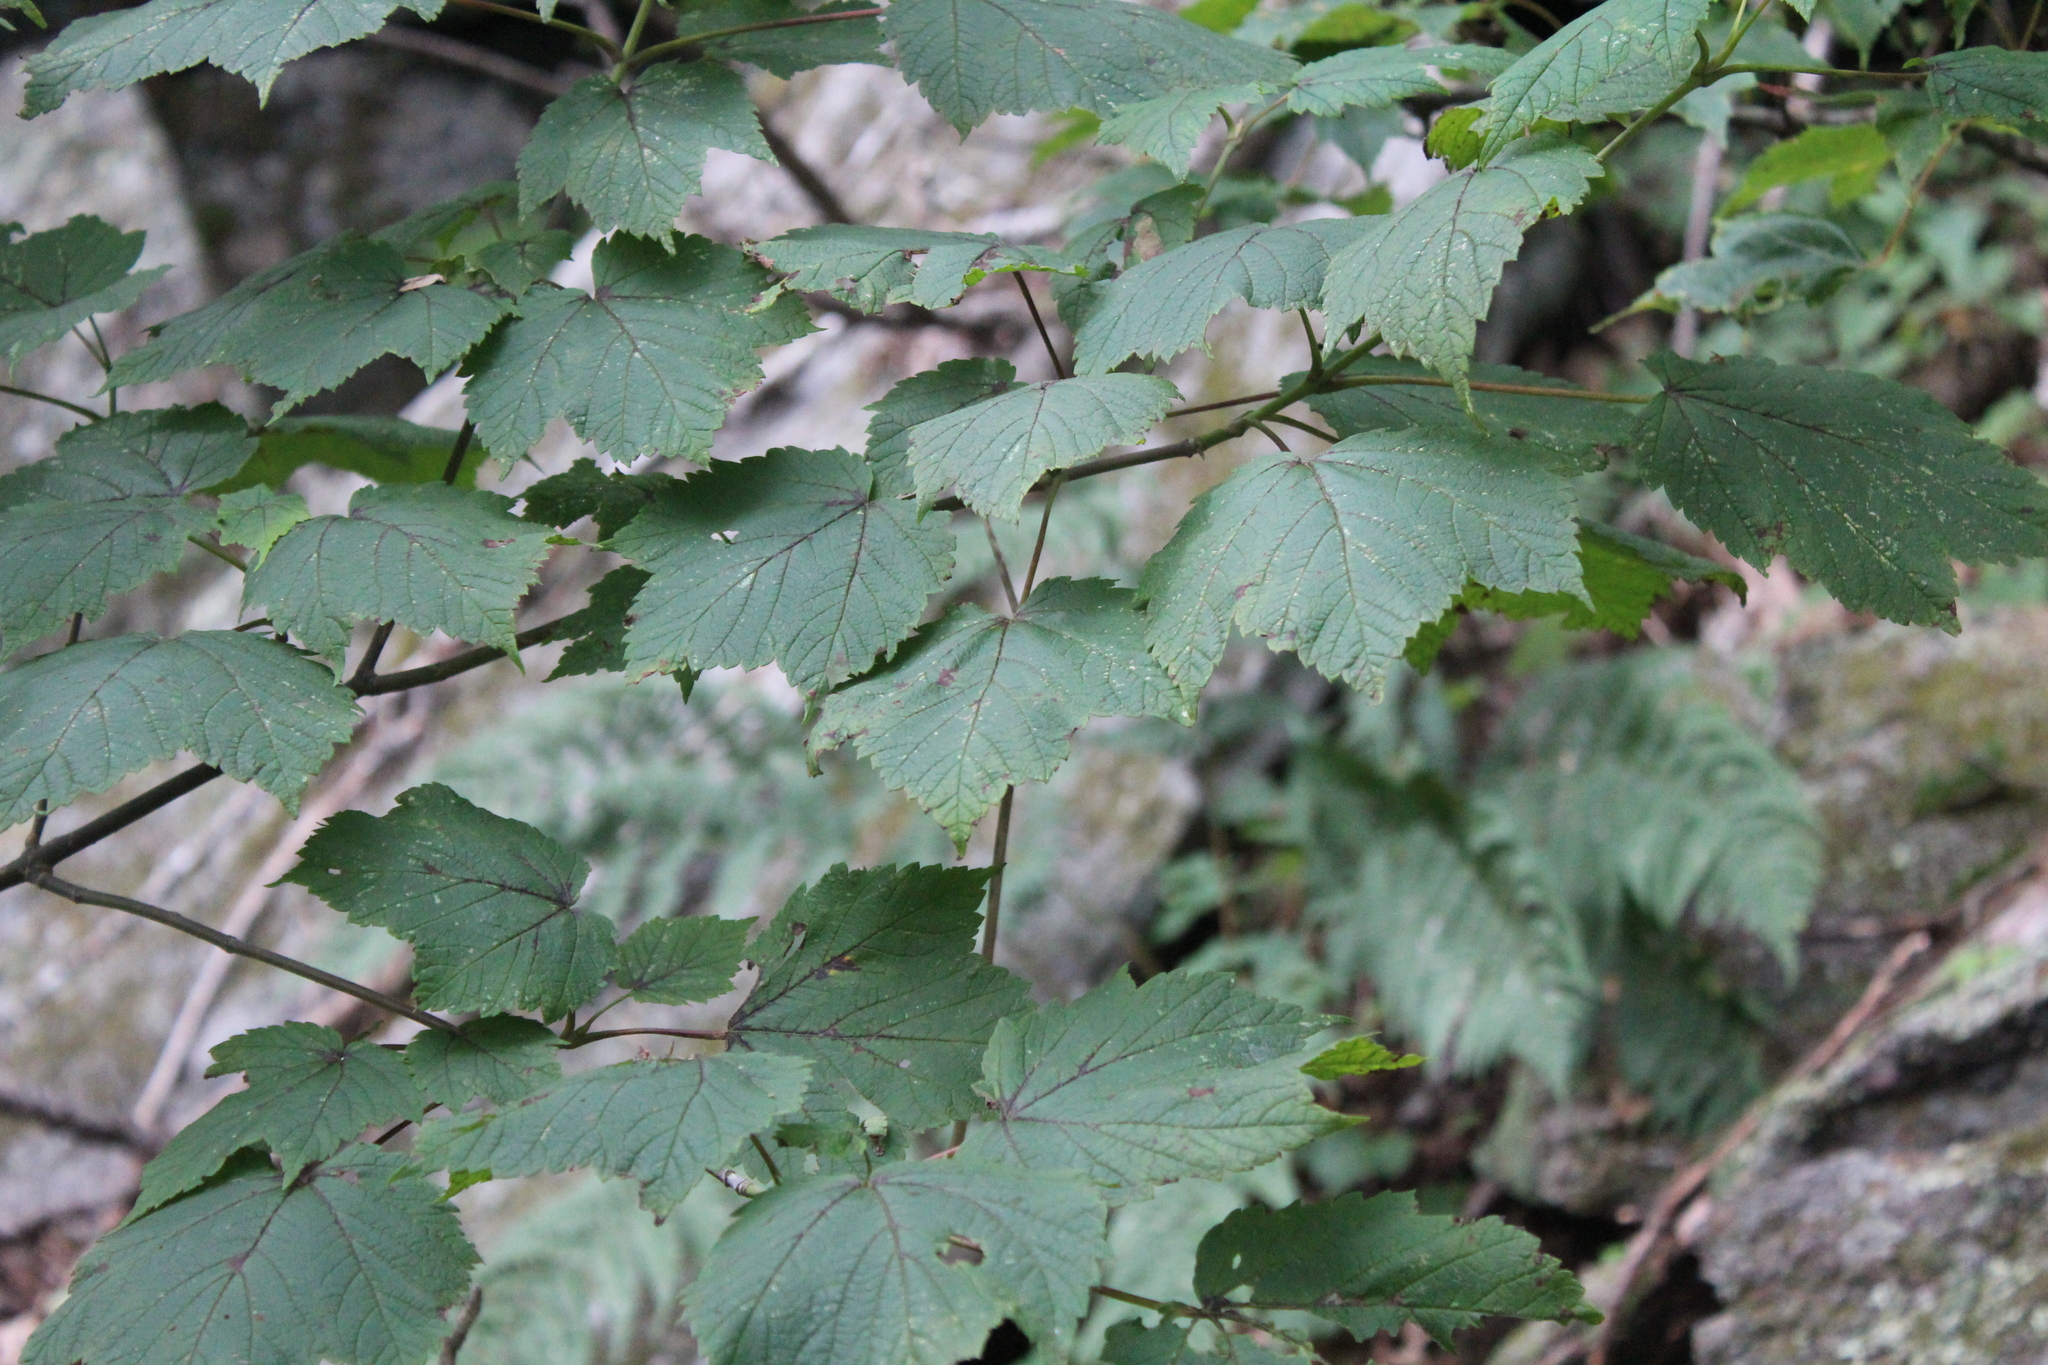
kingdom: Plantae
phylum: Tracheophyta
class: Magnoliopsida
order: Sapindales
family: Sapindaceae
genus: Acer
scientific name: Acer spicatum
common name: Mountain maple
